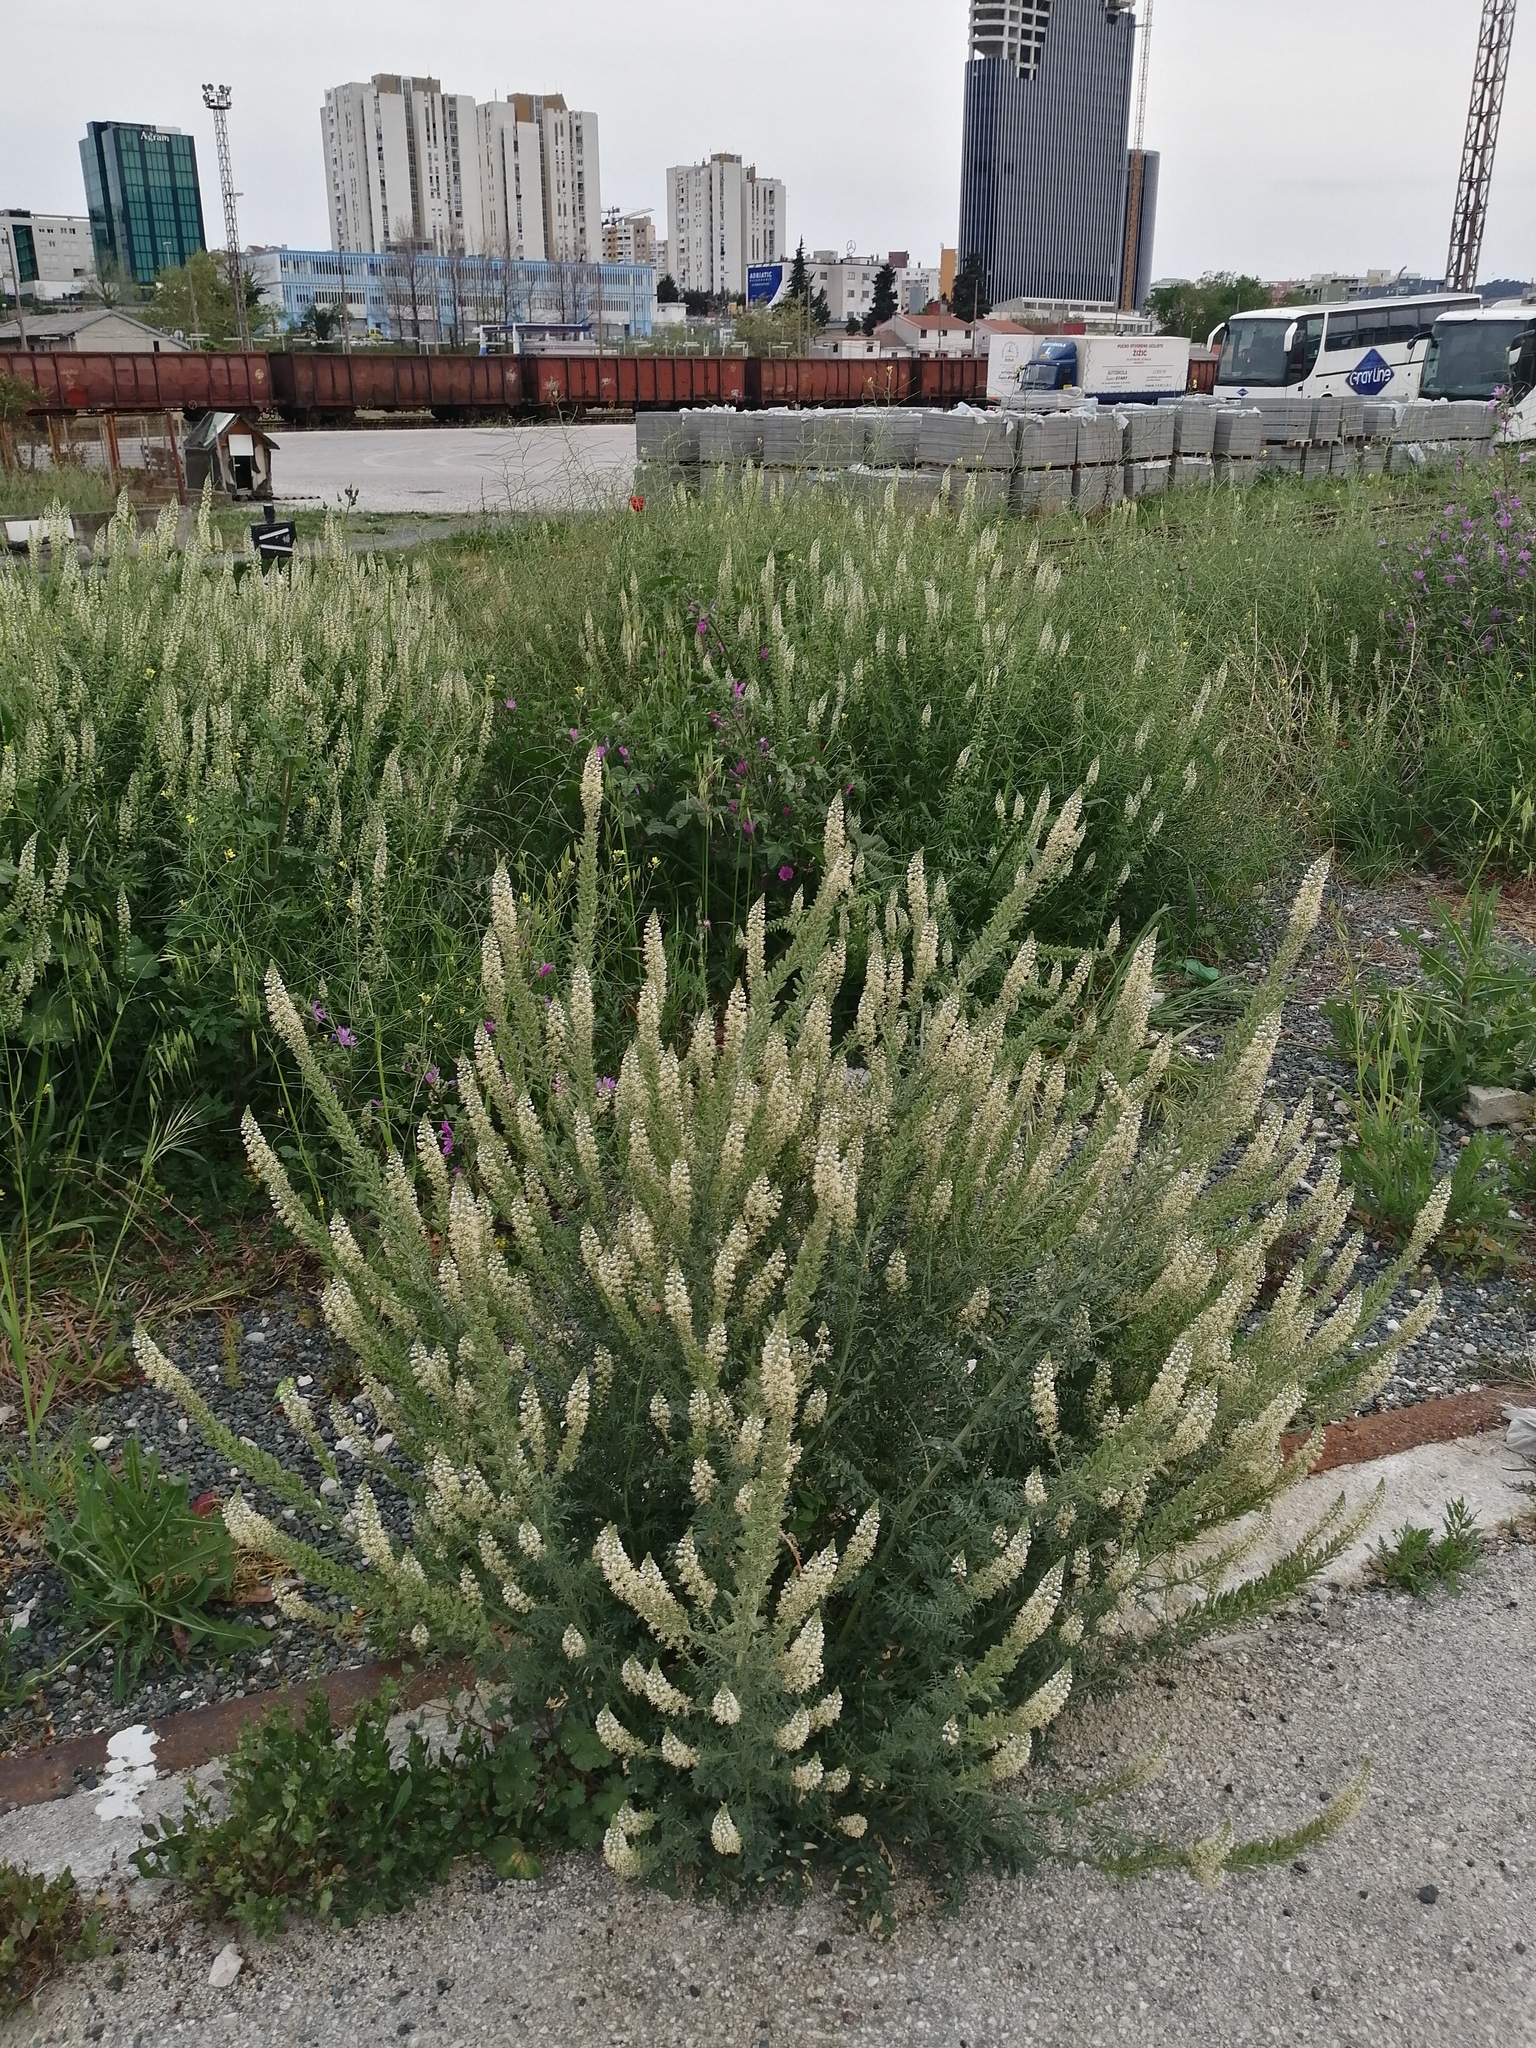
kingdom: Plantae
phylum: Tracheophyta
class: Magnoliopsida
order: Brassicales
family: Resedaceae
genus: Reseda
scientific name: Reseda alba
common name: White mignonette
